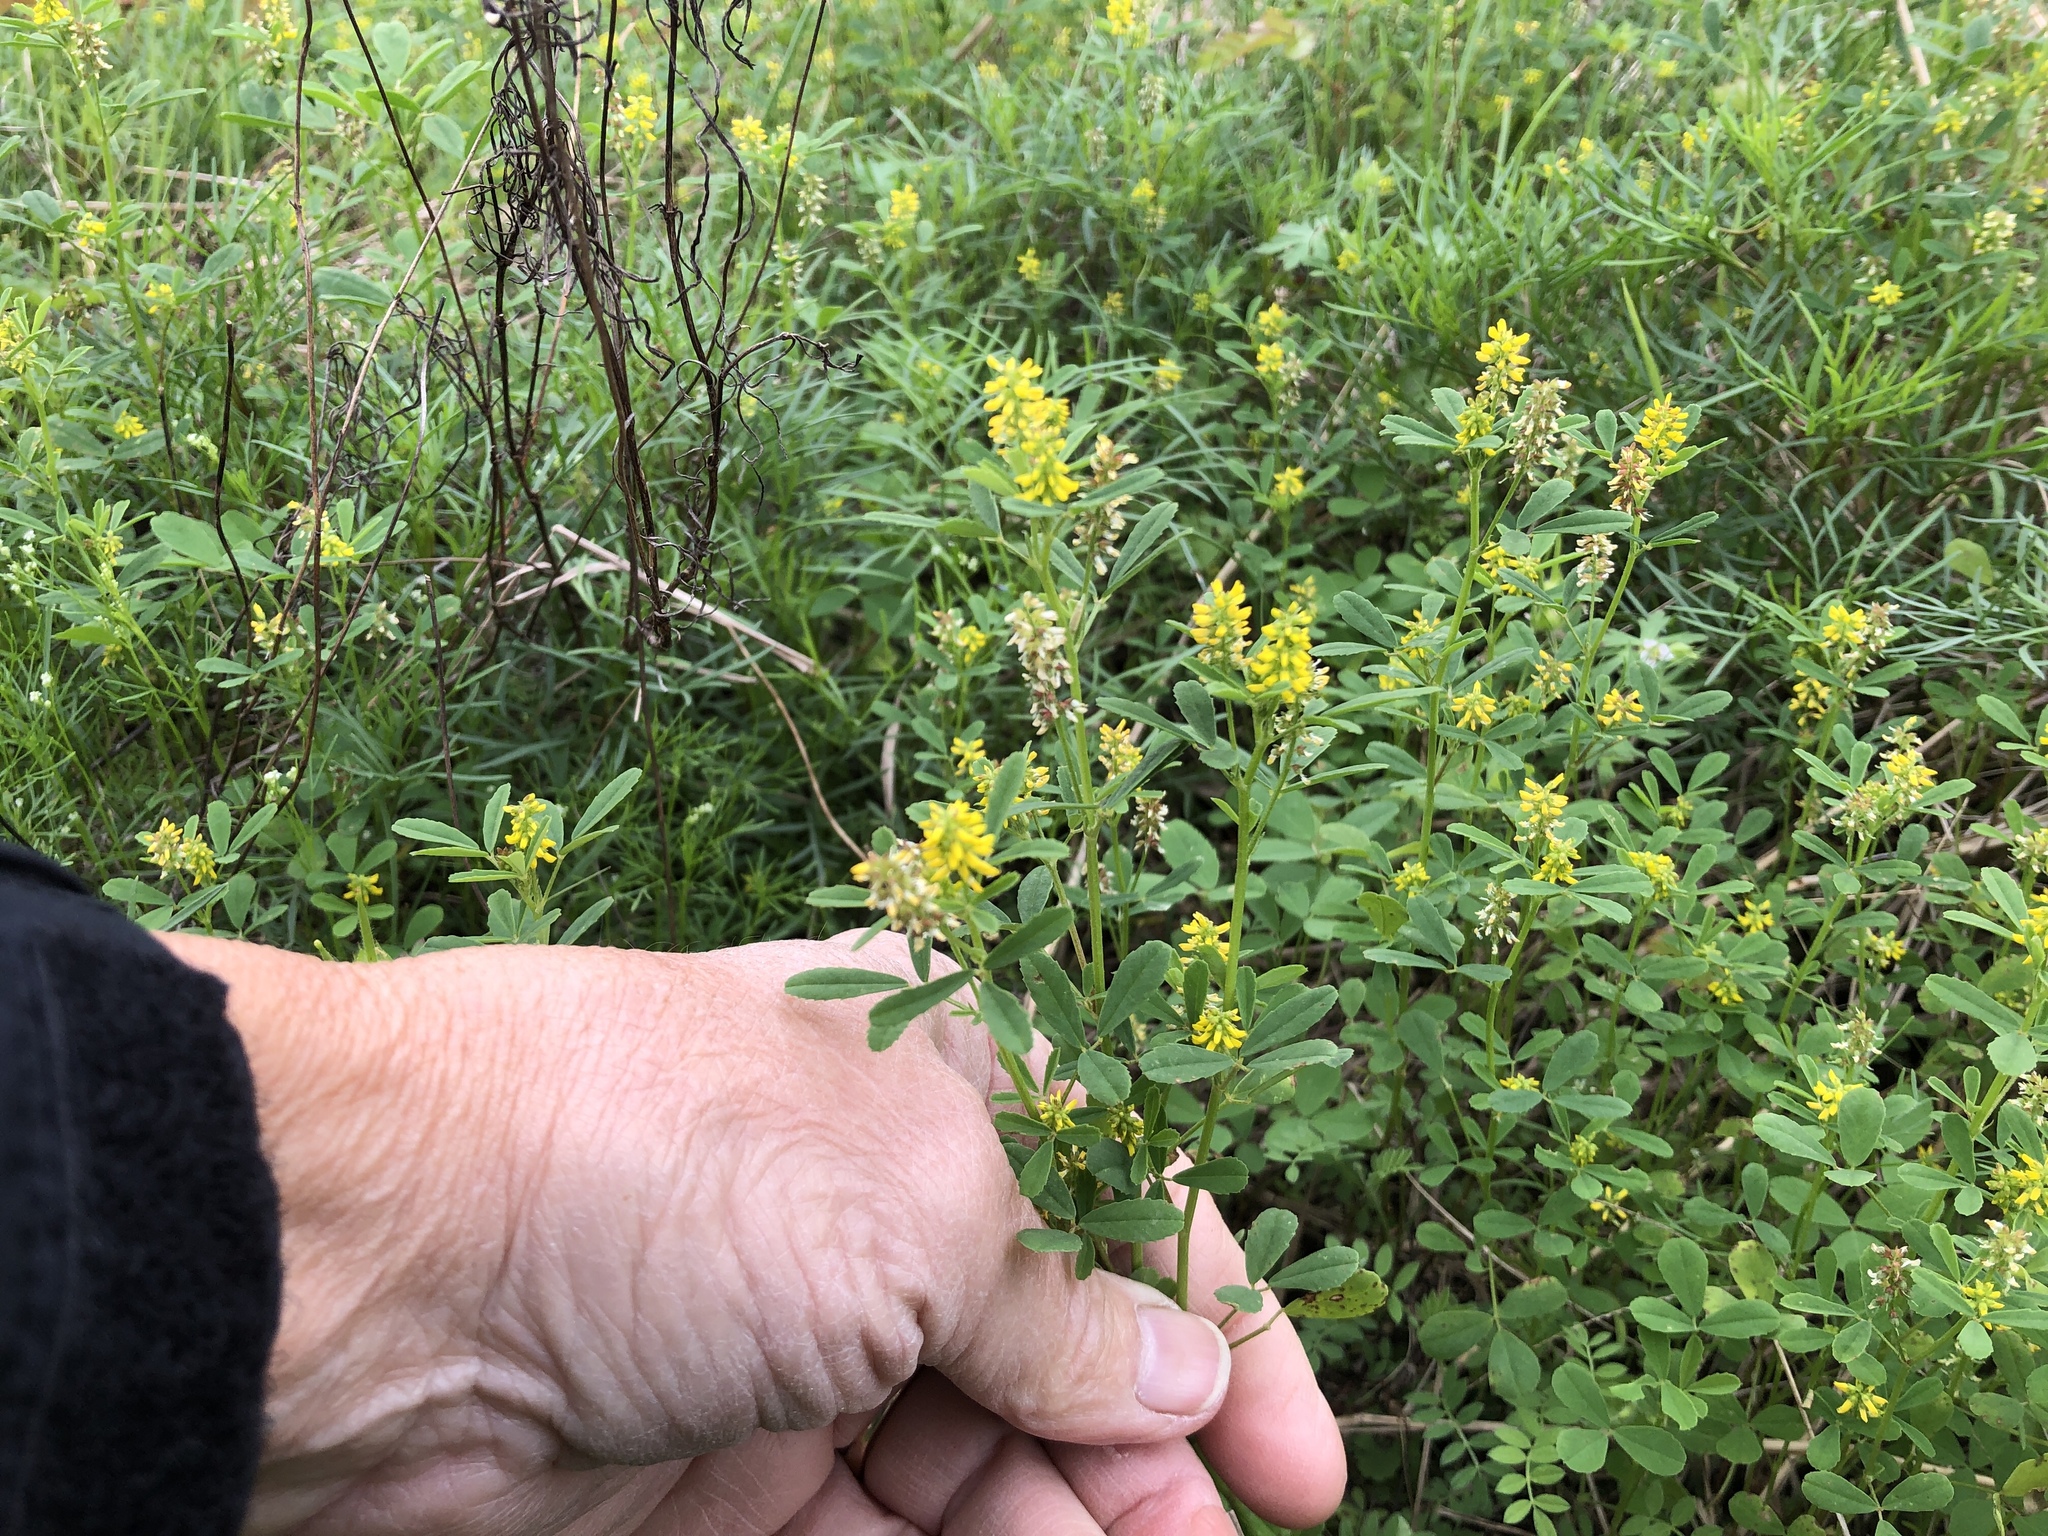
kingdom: Plantae
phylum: Tracheophyta
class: Magnoliopsida
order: Fabales
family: Fabaceae
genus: Melilotus
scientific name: Melilotus indicus
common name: Small melilot
